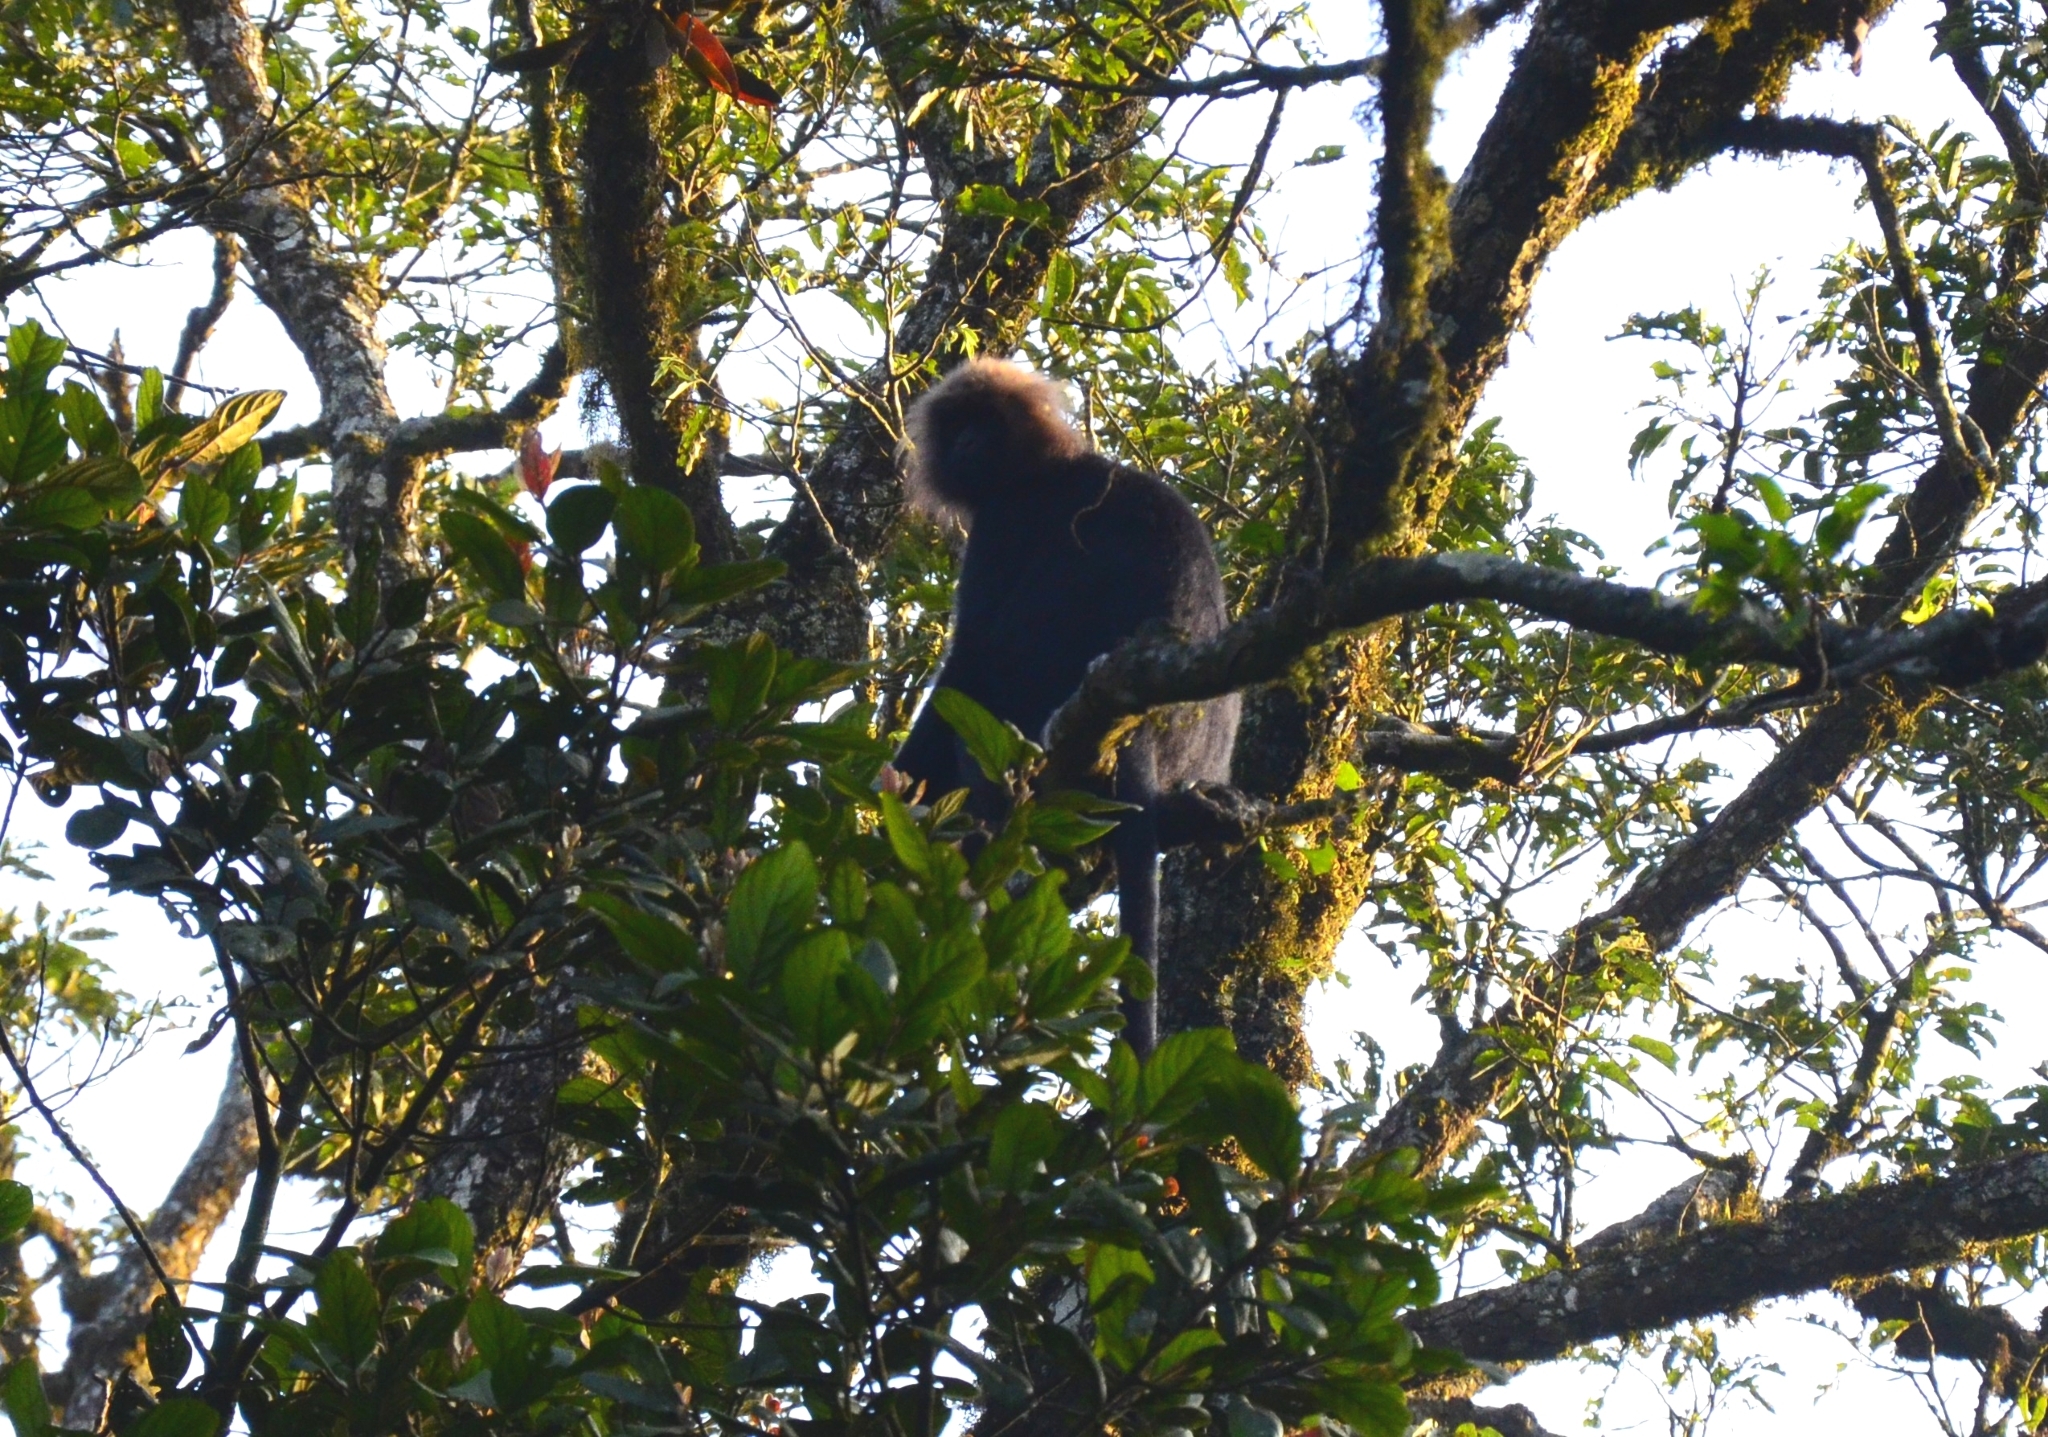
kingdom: Animalia
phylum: Chordata
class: Mammalia
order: Primates
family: Cercopithecidae
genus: Semnopithecus
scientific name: Semnopithecus johnii
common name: Nilgiri langur
